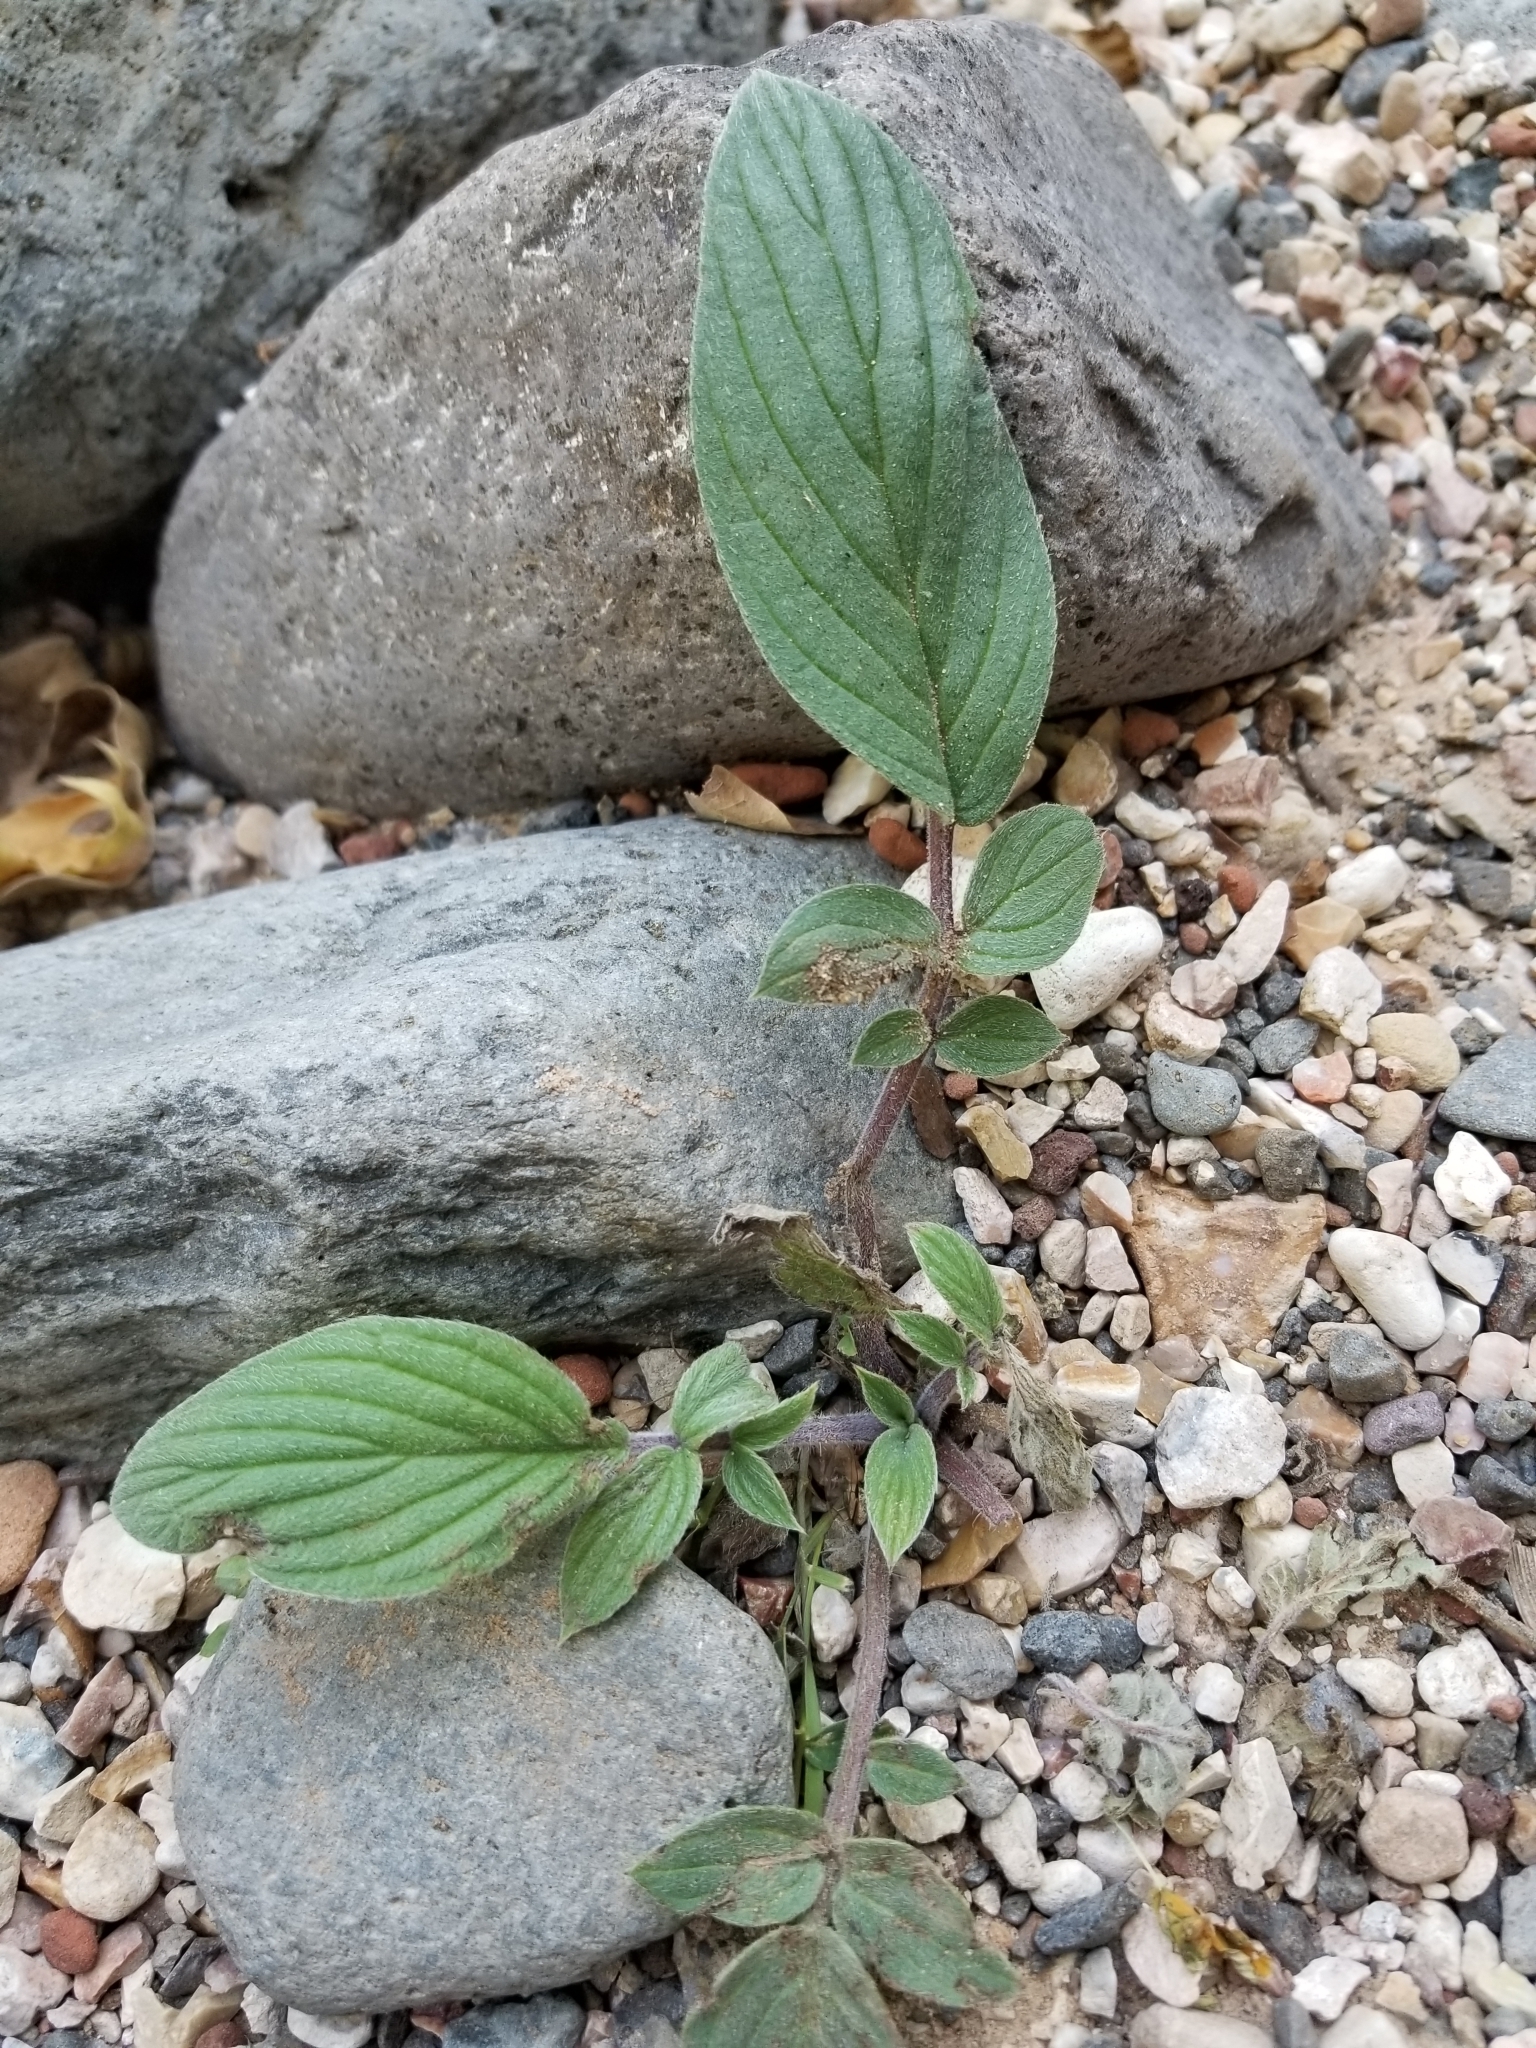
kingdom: Plantae
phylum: Tracheophyta
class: Magnoliopsida
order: Boraginales
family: Hydrophyllaceae
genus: Phacelia
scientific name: Phacelia heterophylla
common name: Variable-leaved phacelia
